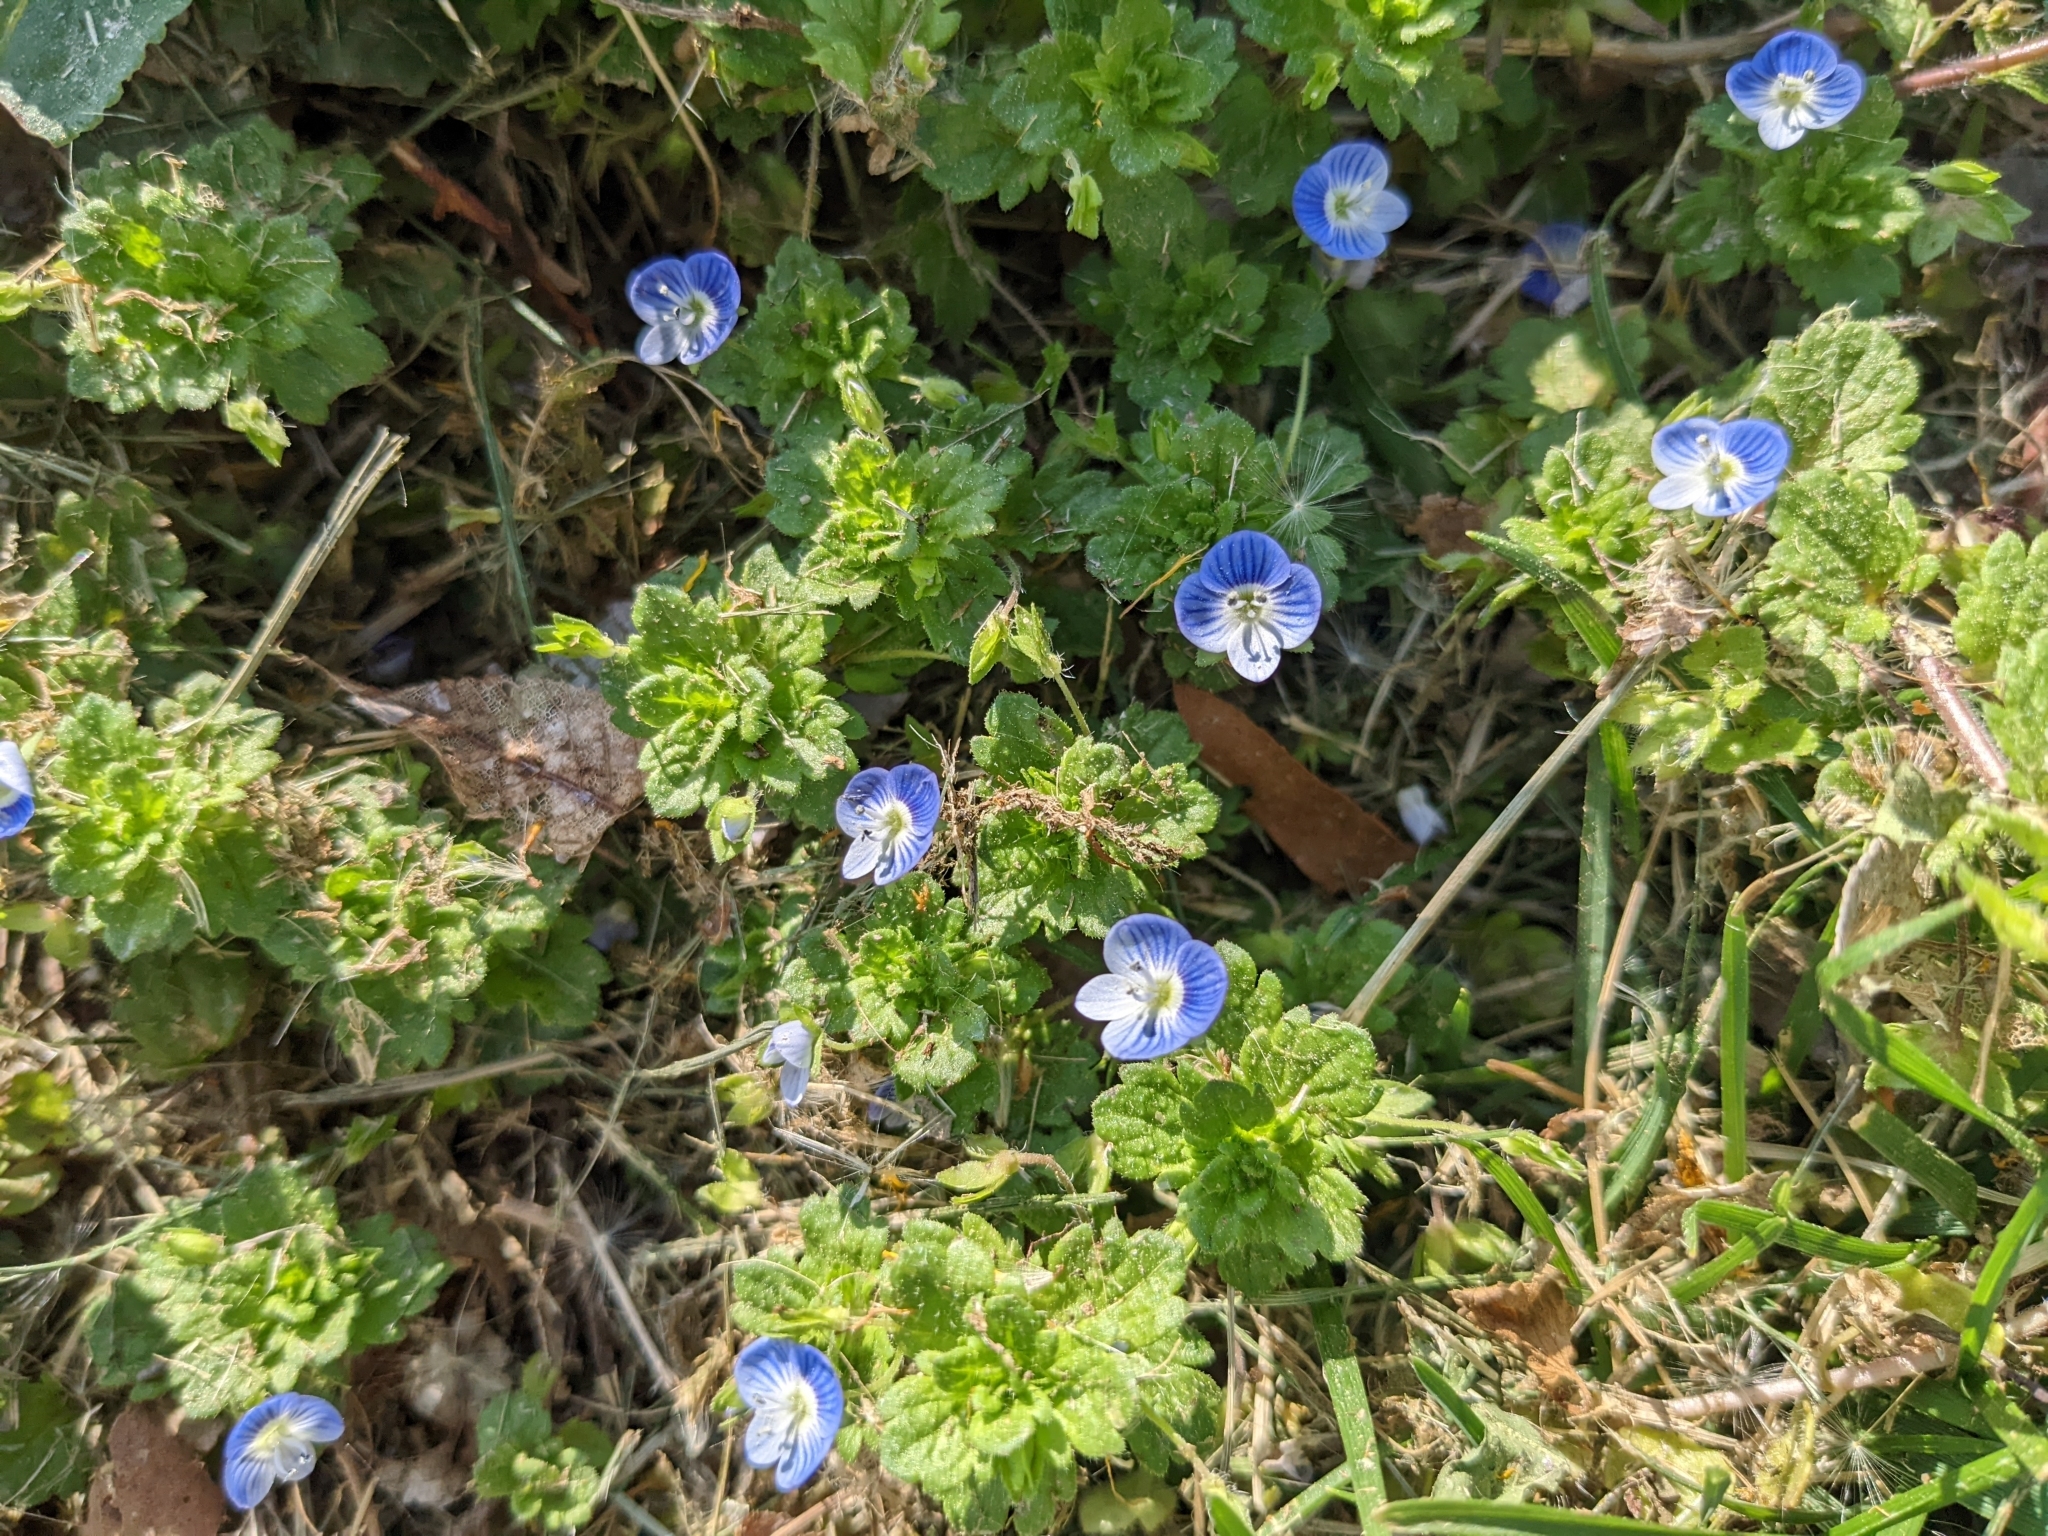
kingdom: Plantae
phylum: Tracheophyta
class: Magnoliopsida
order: Lamiales
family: Plantaginaceae
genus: Veronica
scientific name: Veronica persica
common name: Common field-speedwell
